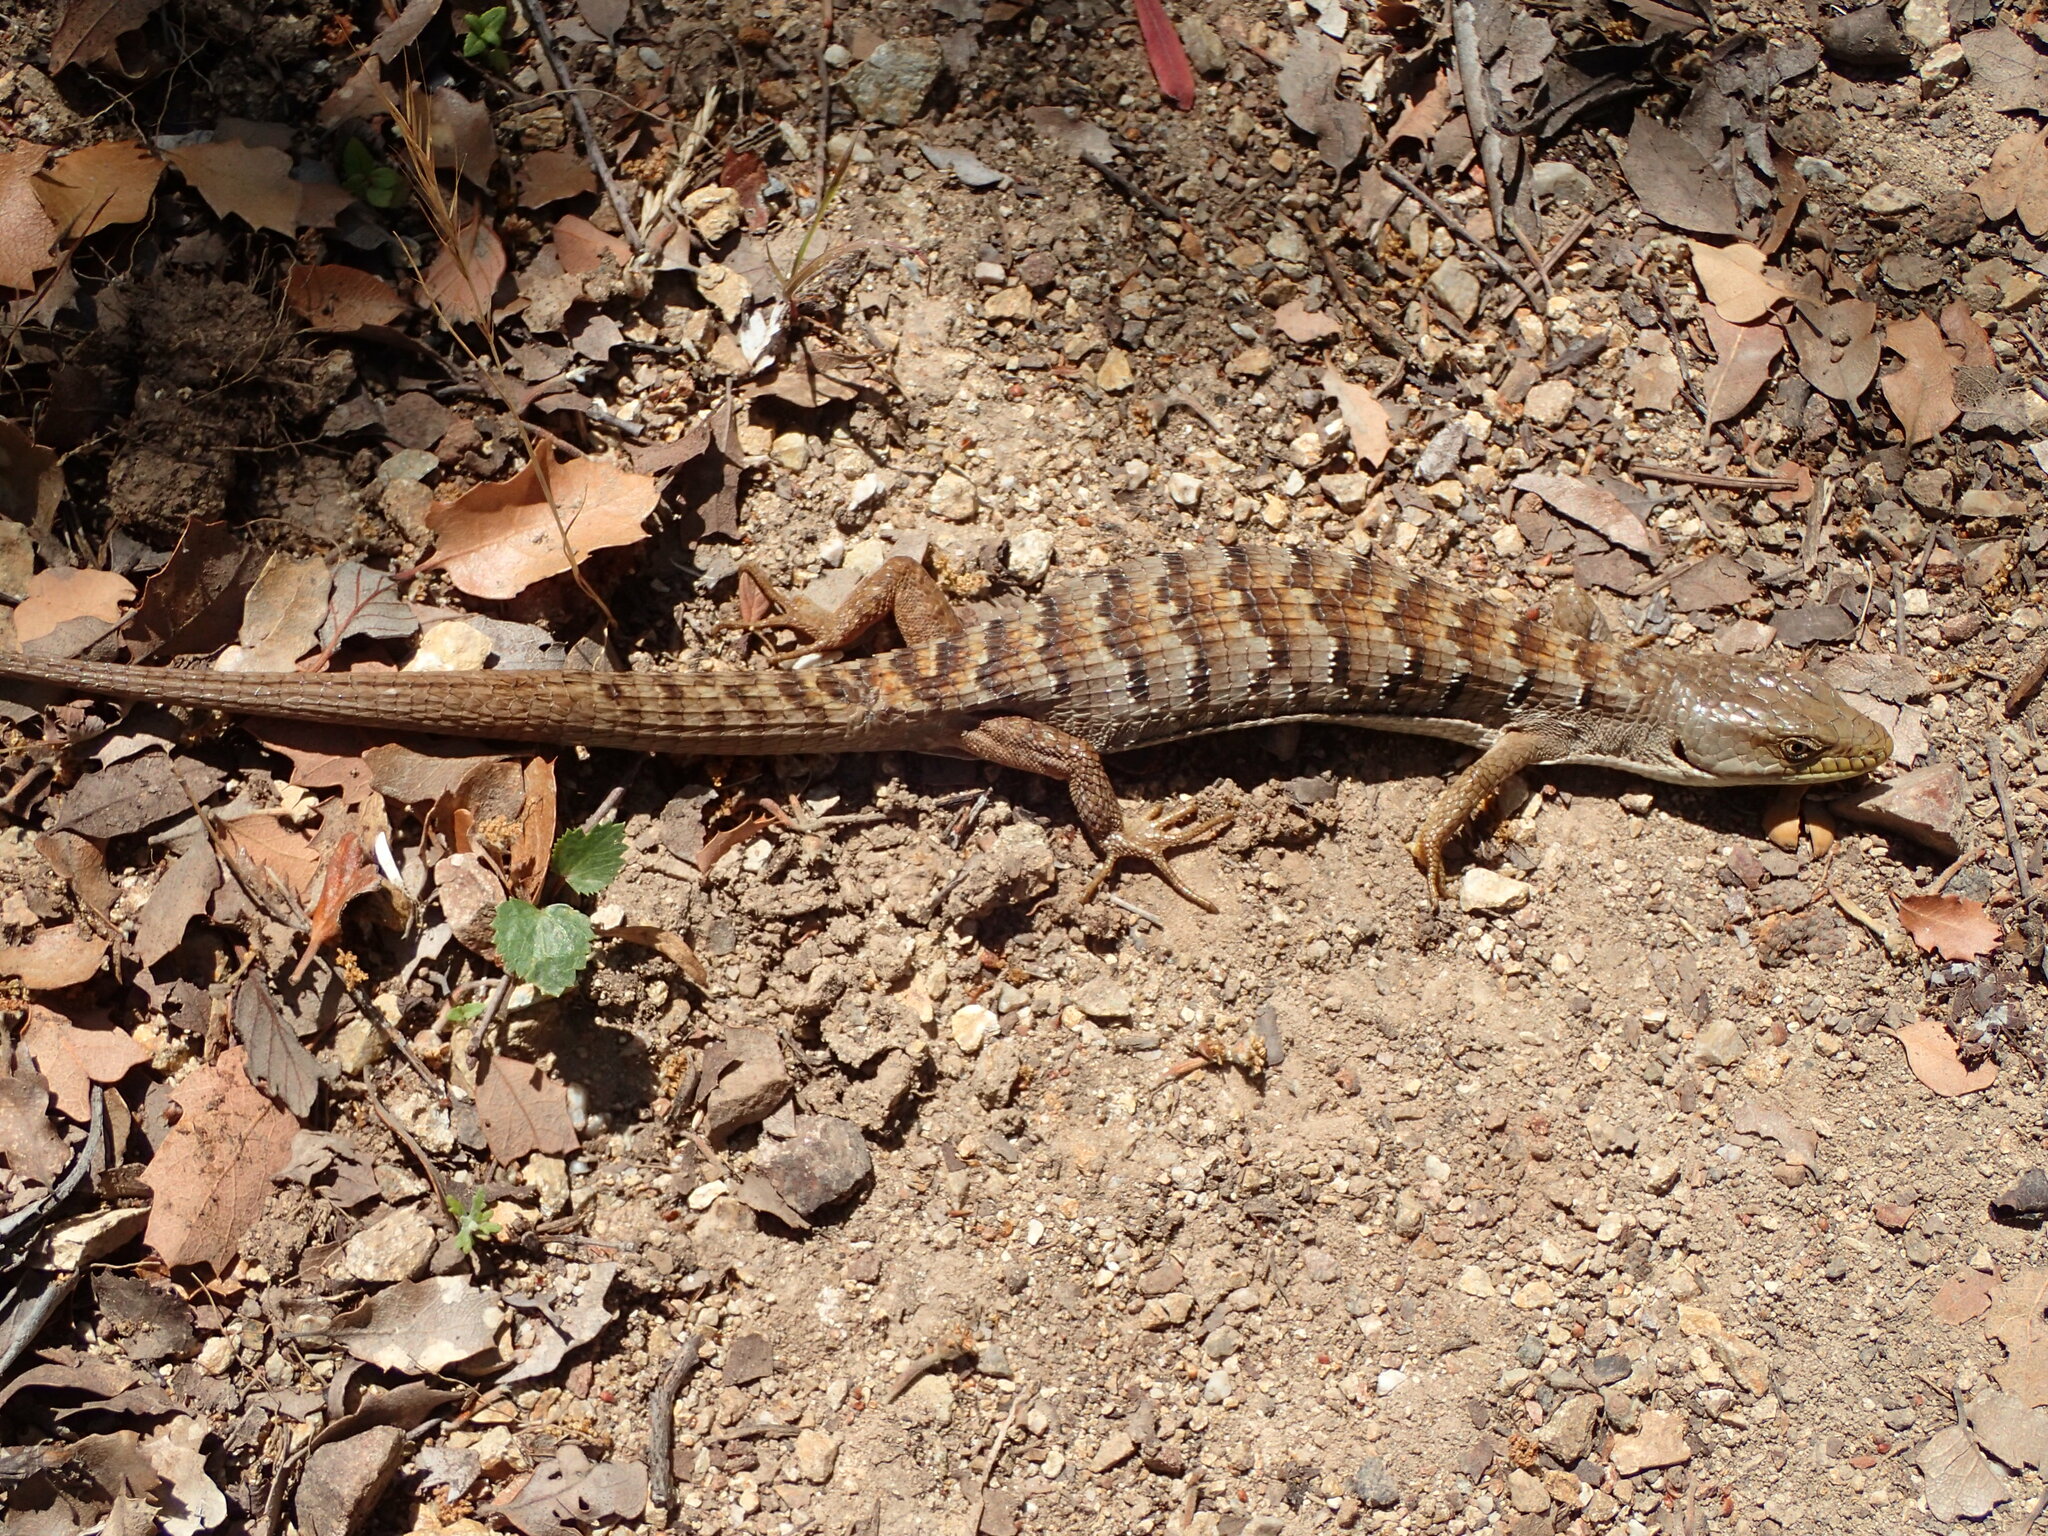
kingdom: Animalia
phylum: Chordata
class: Squamata
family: Anguidae
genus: Elgaria
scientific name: Elgaria multicarinata
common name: Southern alligator lizard
